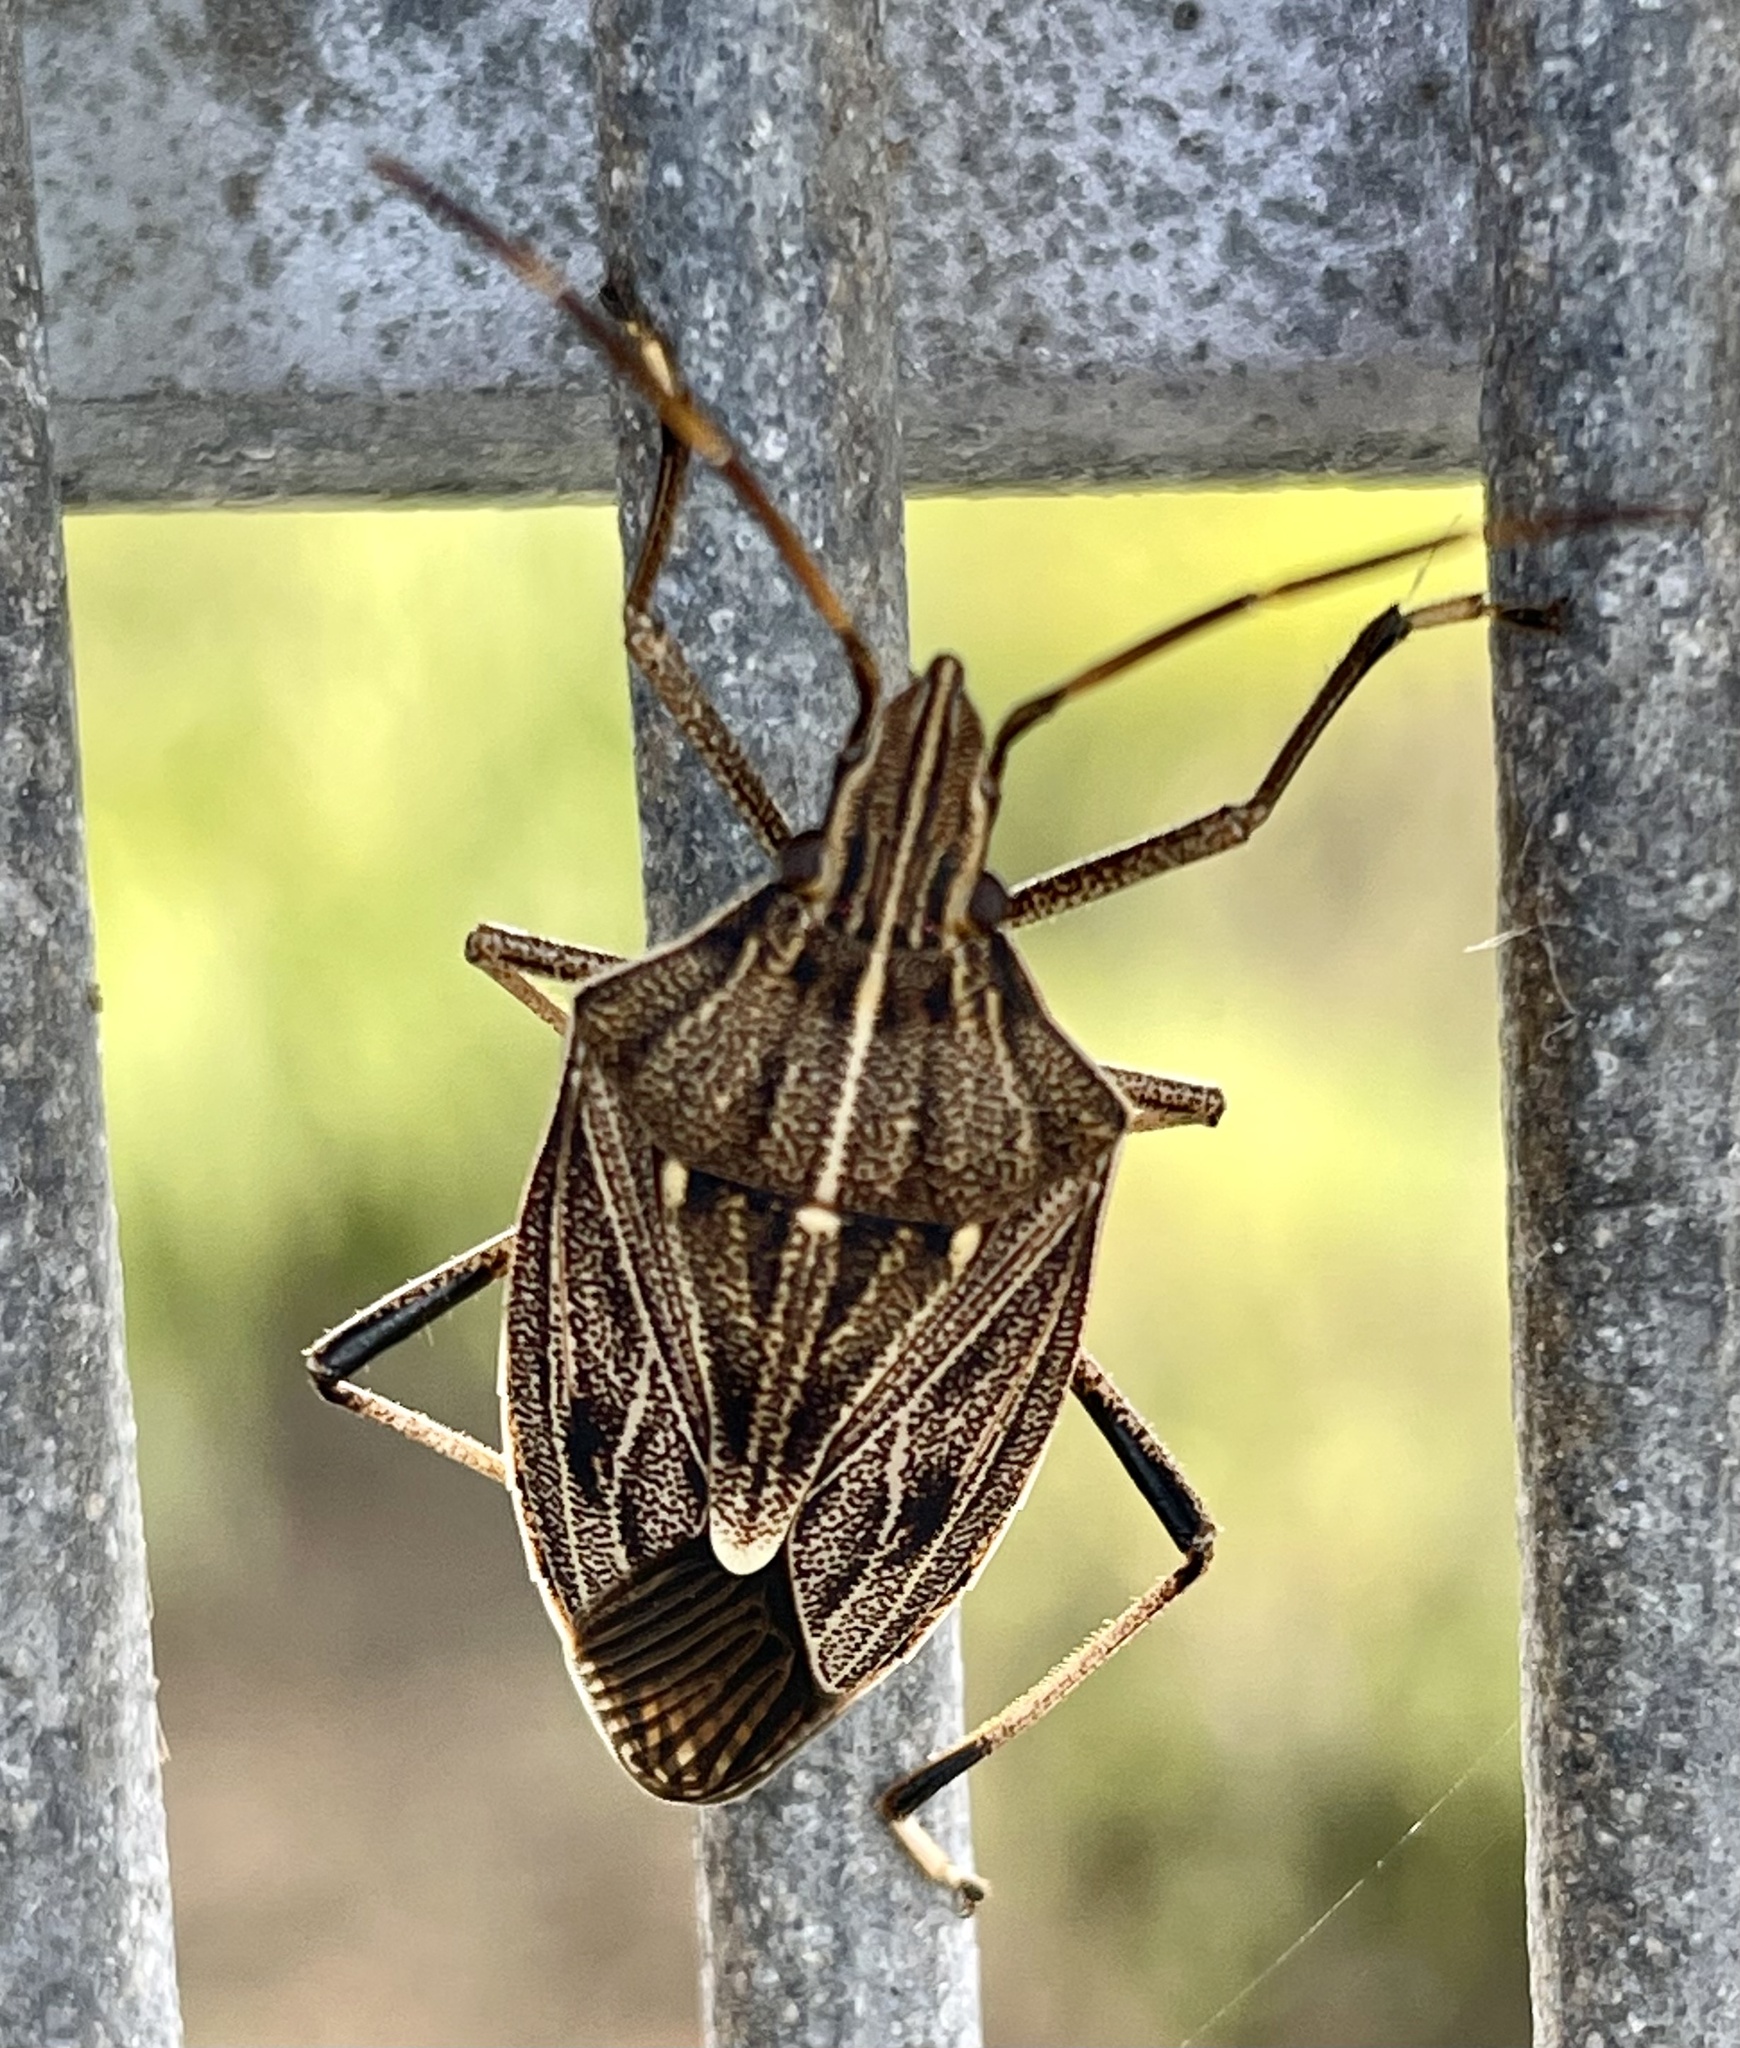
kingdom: Animalia
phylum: Arthropoda
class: Insecta
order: Hemiptera
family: Pentatomidae
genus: Poecilometis
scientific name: Poecilometis
